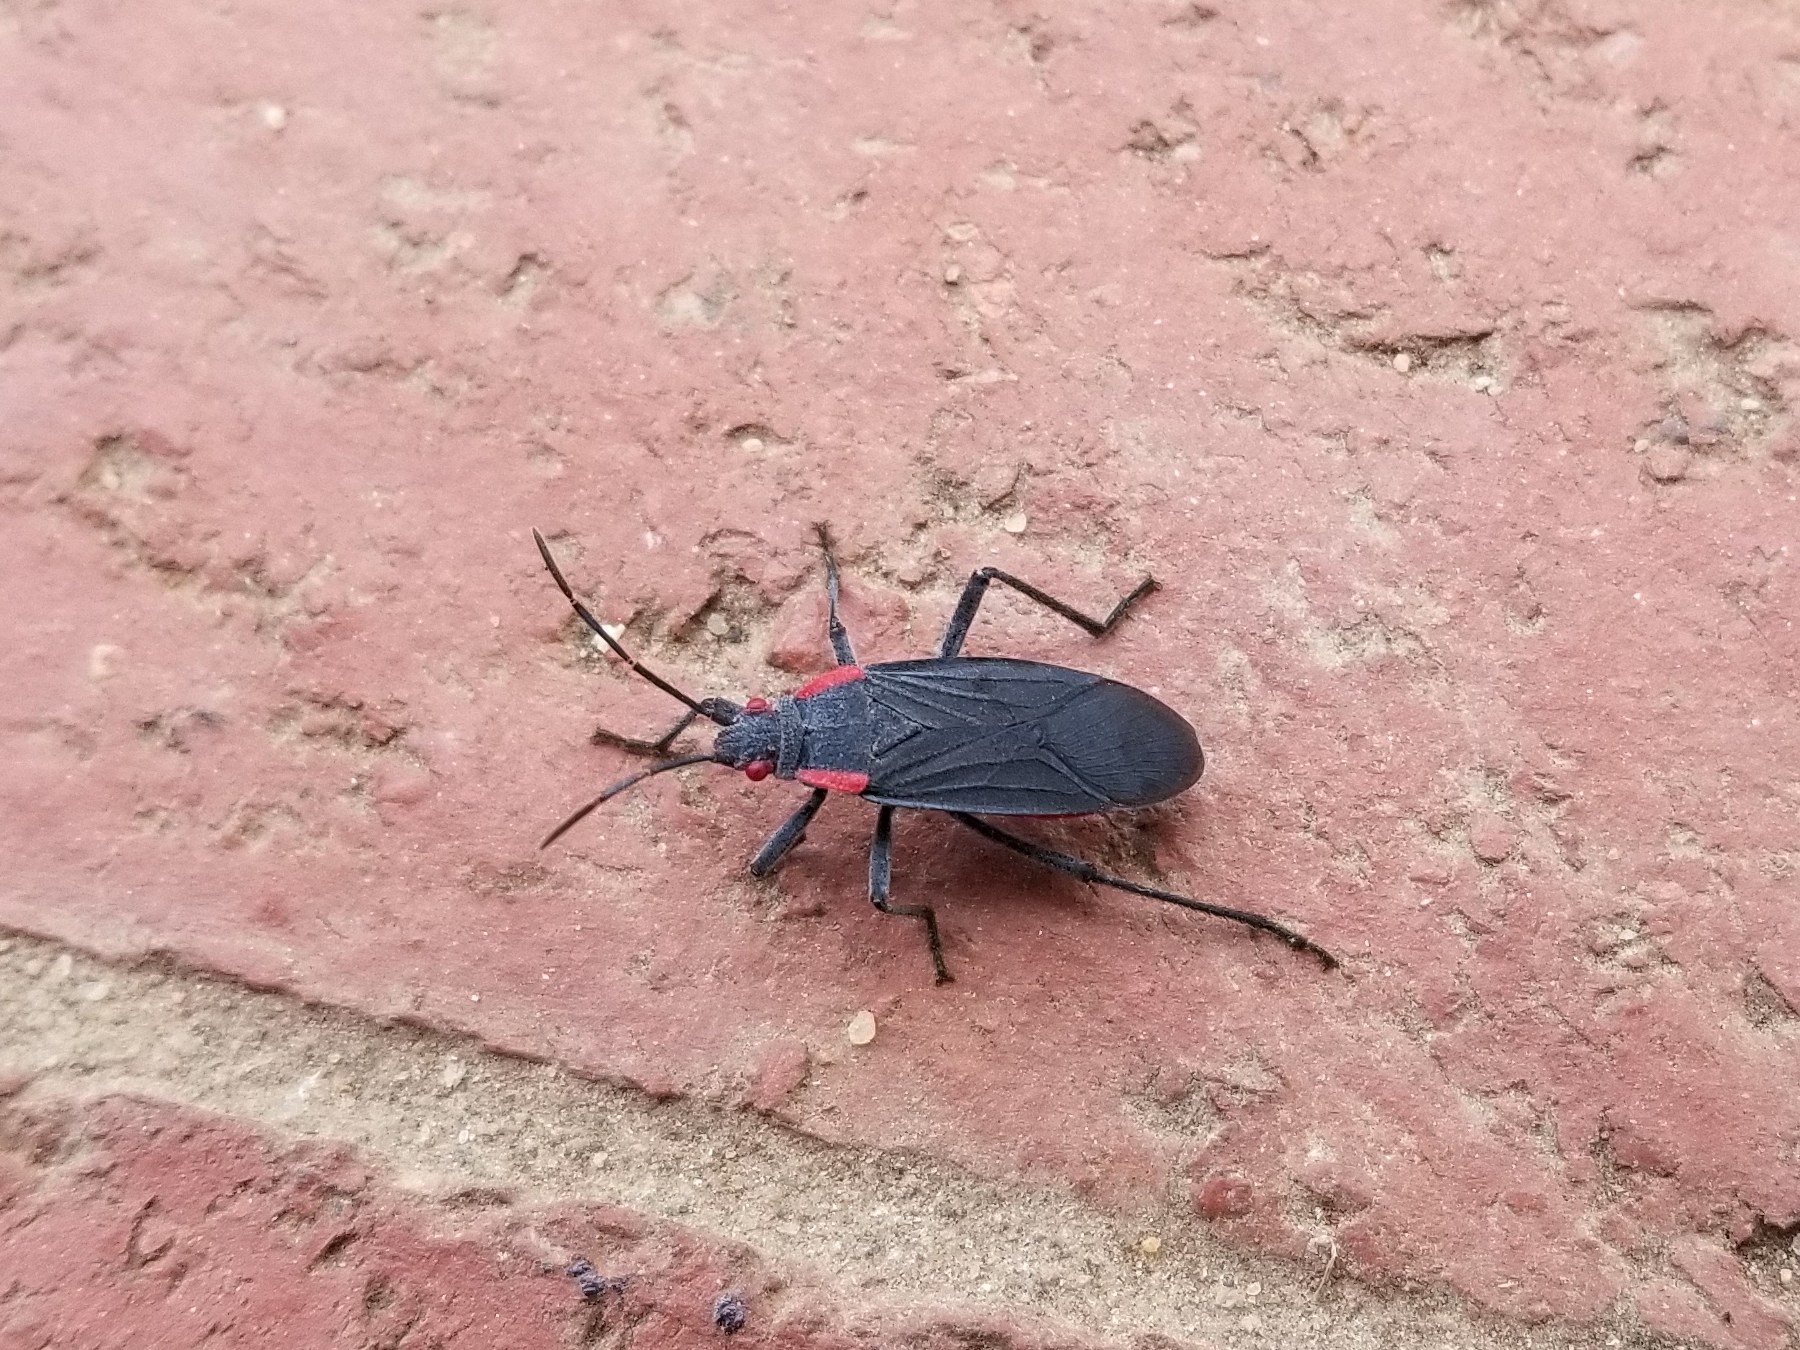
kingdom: Animalia
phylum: Arthropoda
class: Insecta
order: Hemiptera
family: Rhopalidae
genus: Jadera
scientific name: Jadera haematoloma
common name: Red-shouldered bug
